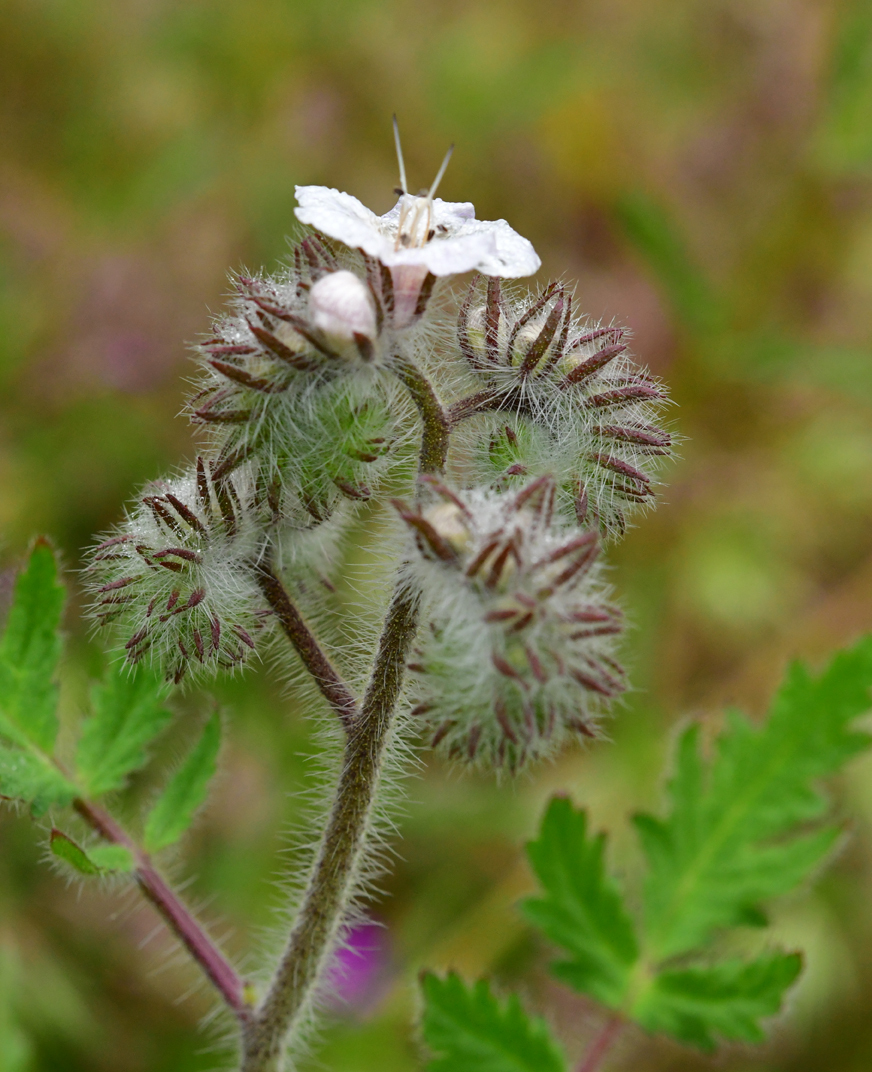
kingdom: Plantae
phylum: Tracheophyta
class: Magnoliopsida
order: Boraginales
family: Hydrophyllaceae
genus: Phacelia
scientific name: Phacelia cicutaria
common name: Caterpillar phacelia
